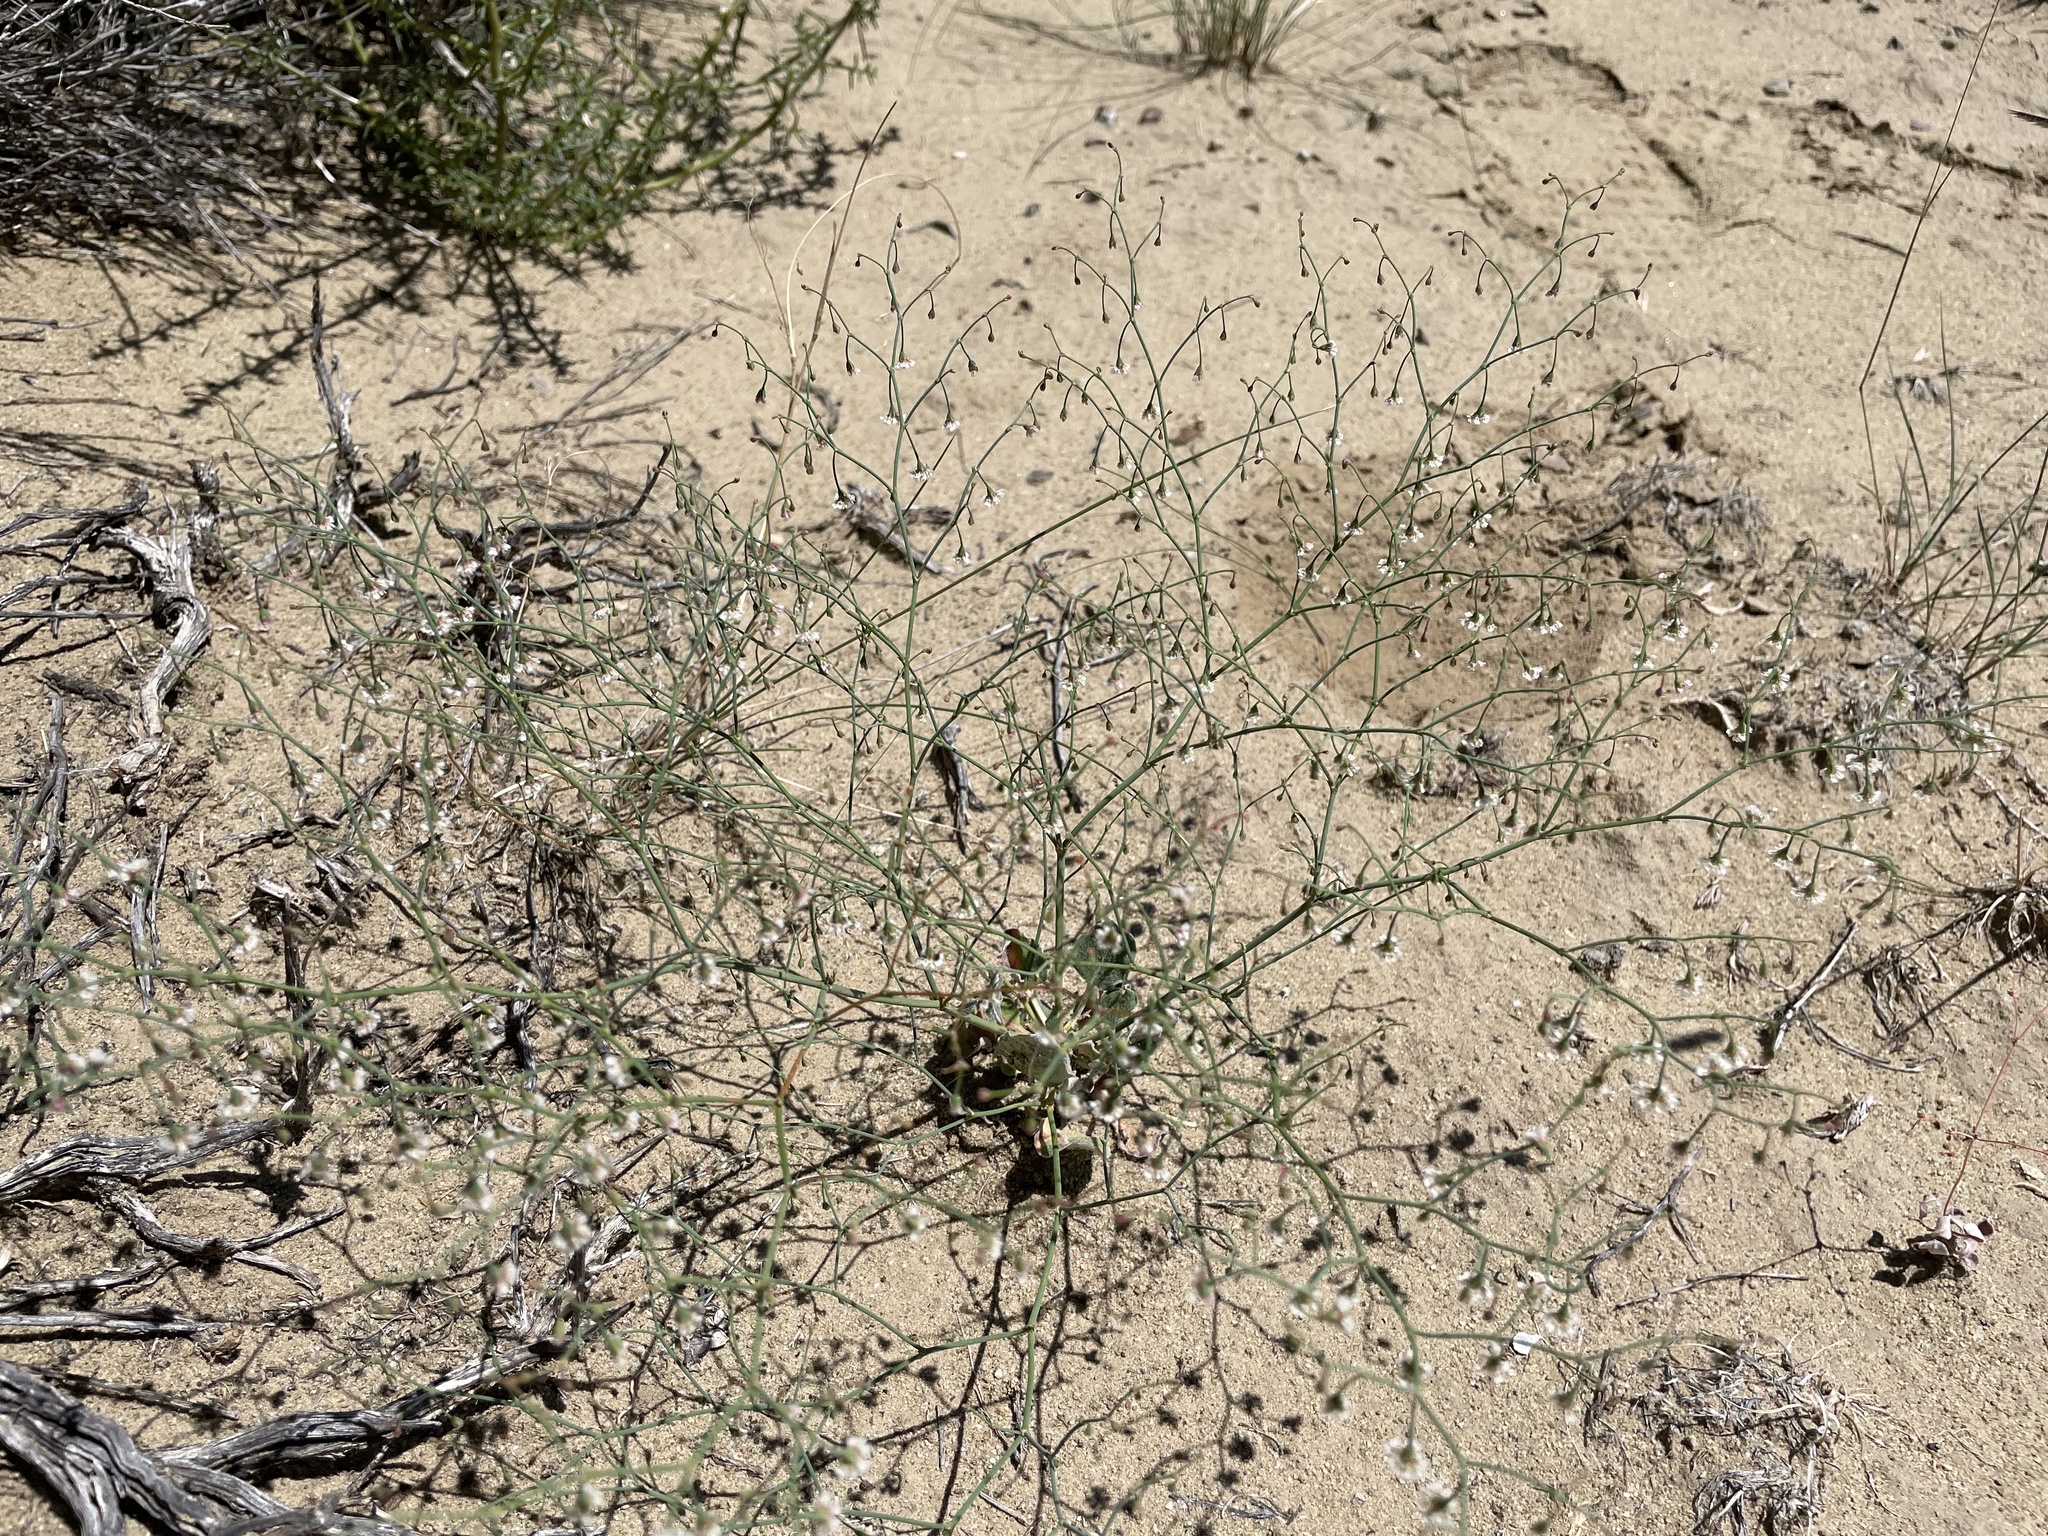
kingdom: Plantae
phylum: Tracheophyta
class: Magnoliopsida
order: Caryophyllales
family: Polygonaceae
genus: Eriogonum
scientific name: Eriogonum cernuum
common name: Nodding wild buckwheat
